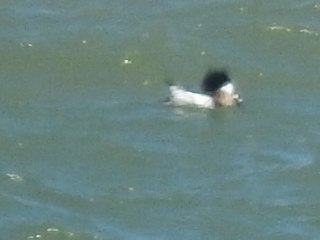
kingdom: Animalia
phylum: Chordata
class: Aves
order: Anseriformes
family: Anatidae
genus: Mergus
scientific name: Mergus serrator
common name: Red-breasted merganser
